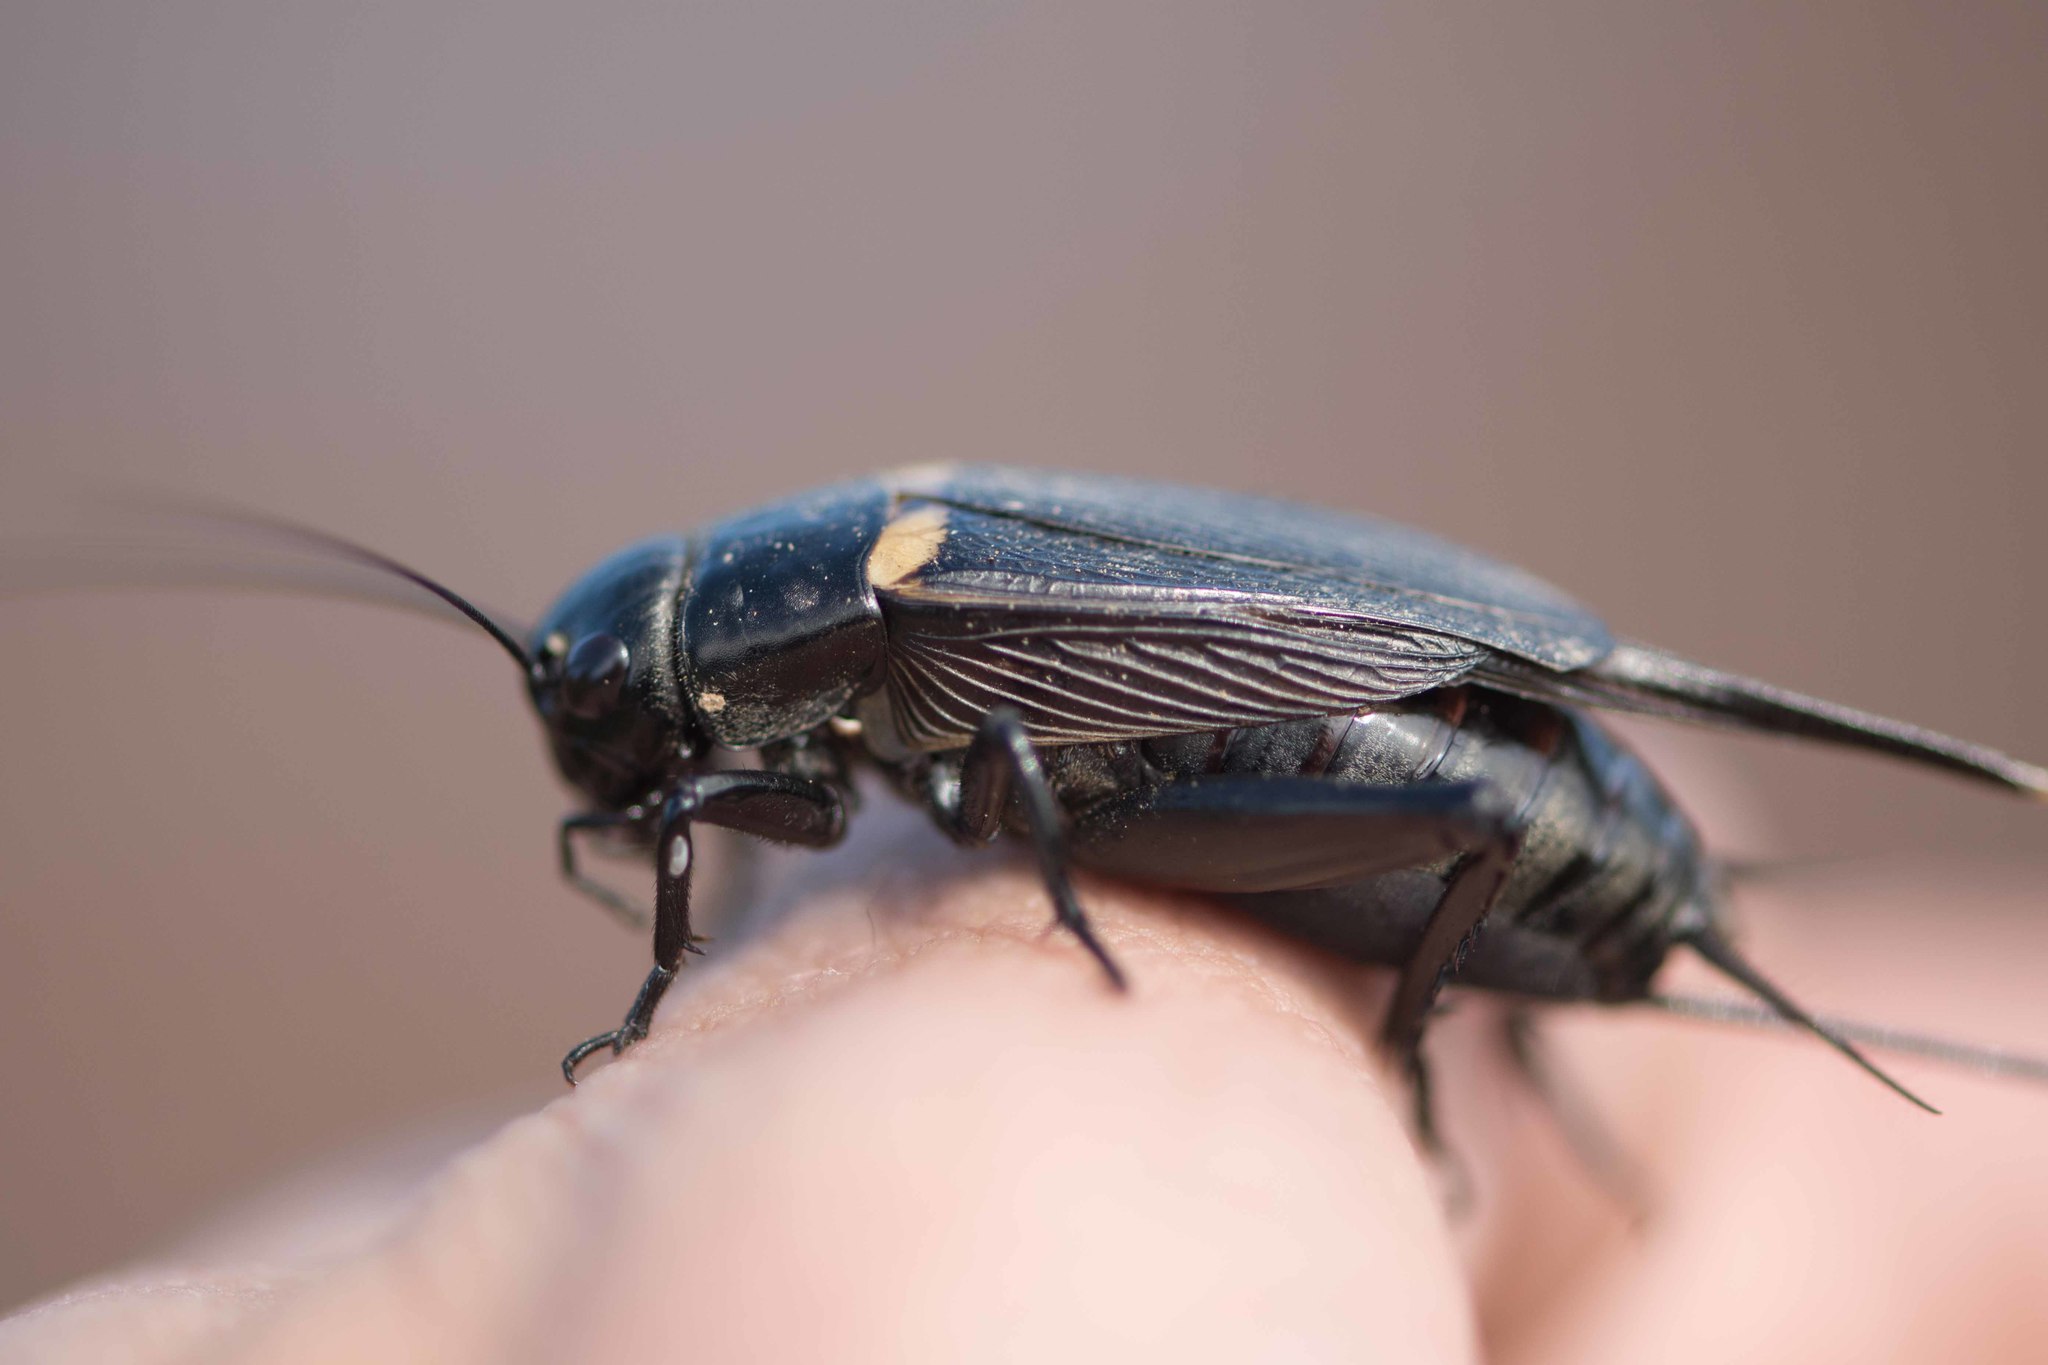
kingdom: Animalia
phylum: Arthropoda
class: Insecta
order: Orthoptera
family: Gryllidae
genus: Gryllus
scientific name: Gryllus bimaculatus
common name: Two-spotted cricket
